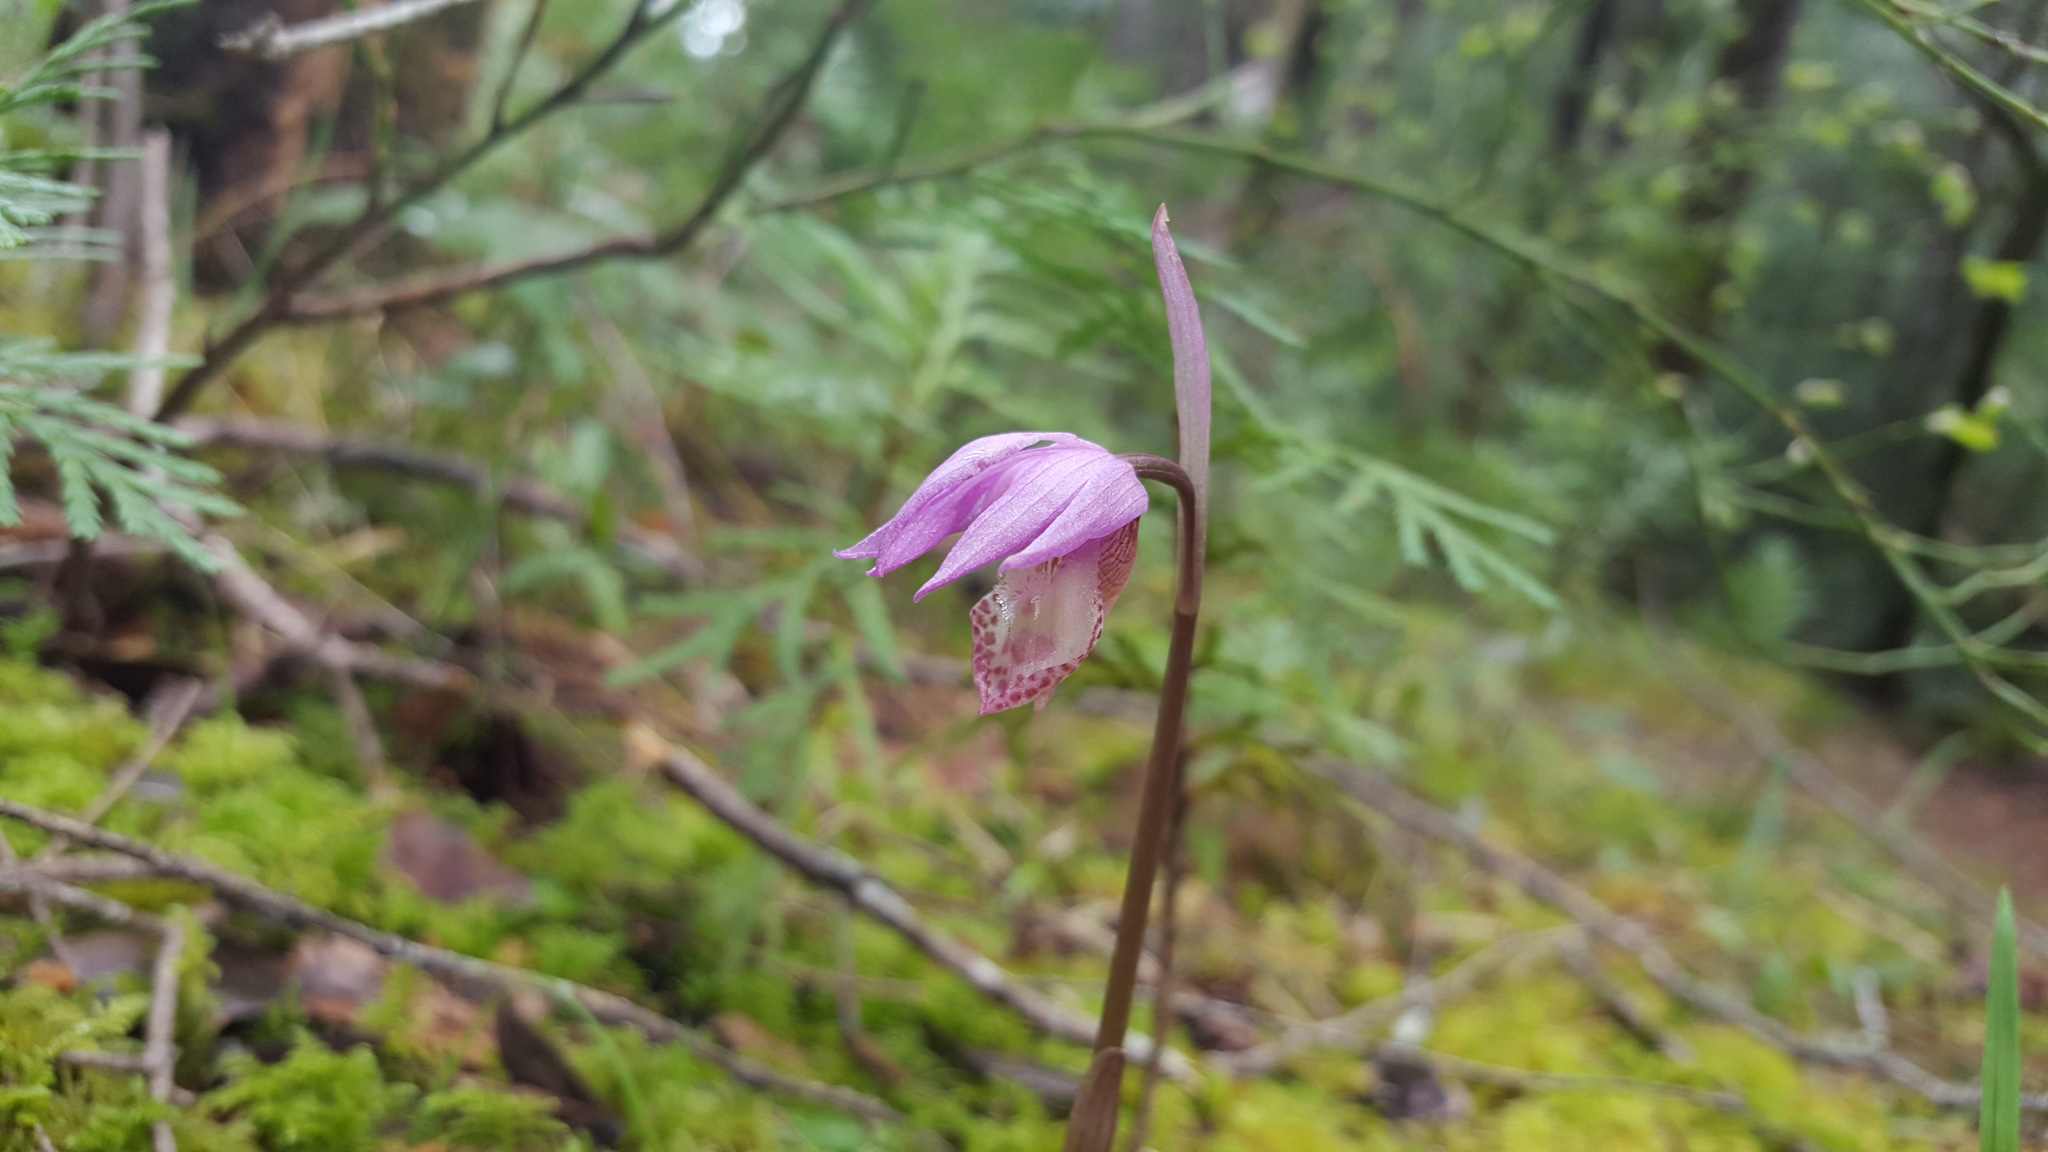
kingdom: Plantae
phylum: Tracheophyta
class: Liliopsida
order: Asparagales
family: Orchidaceae
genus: Calypso
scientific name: Calypso bulbosa
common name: Calypso
